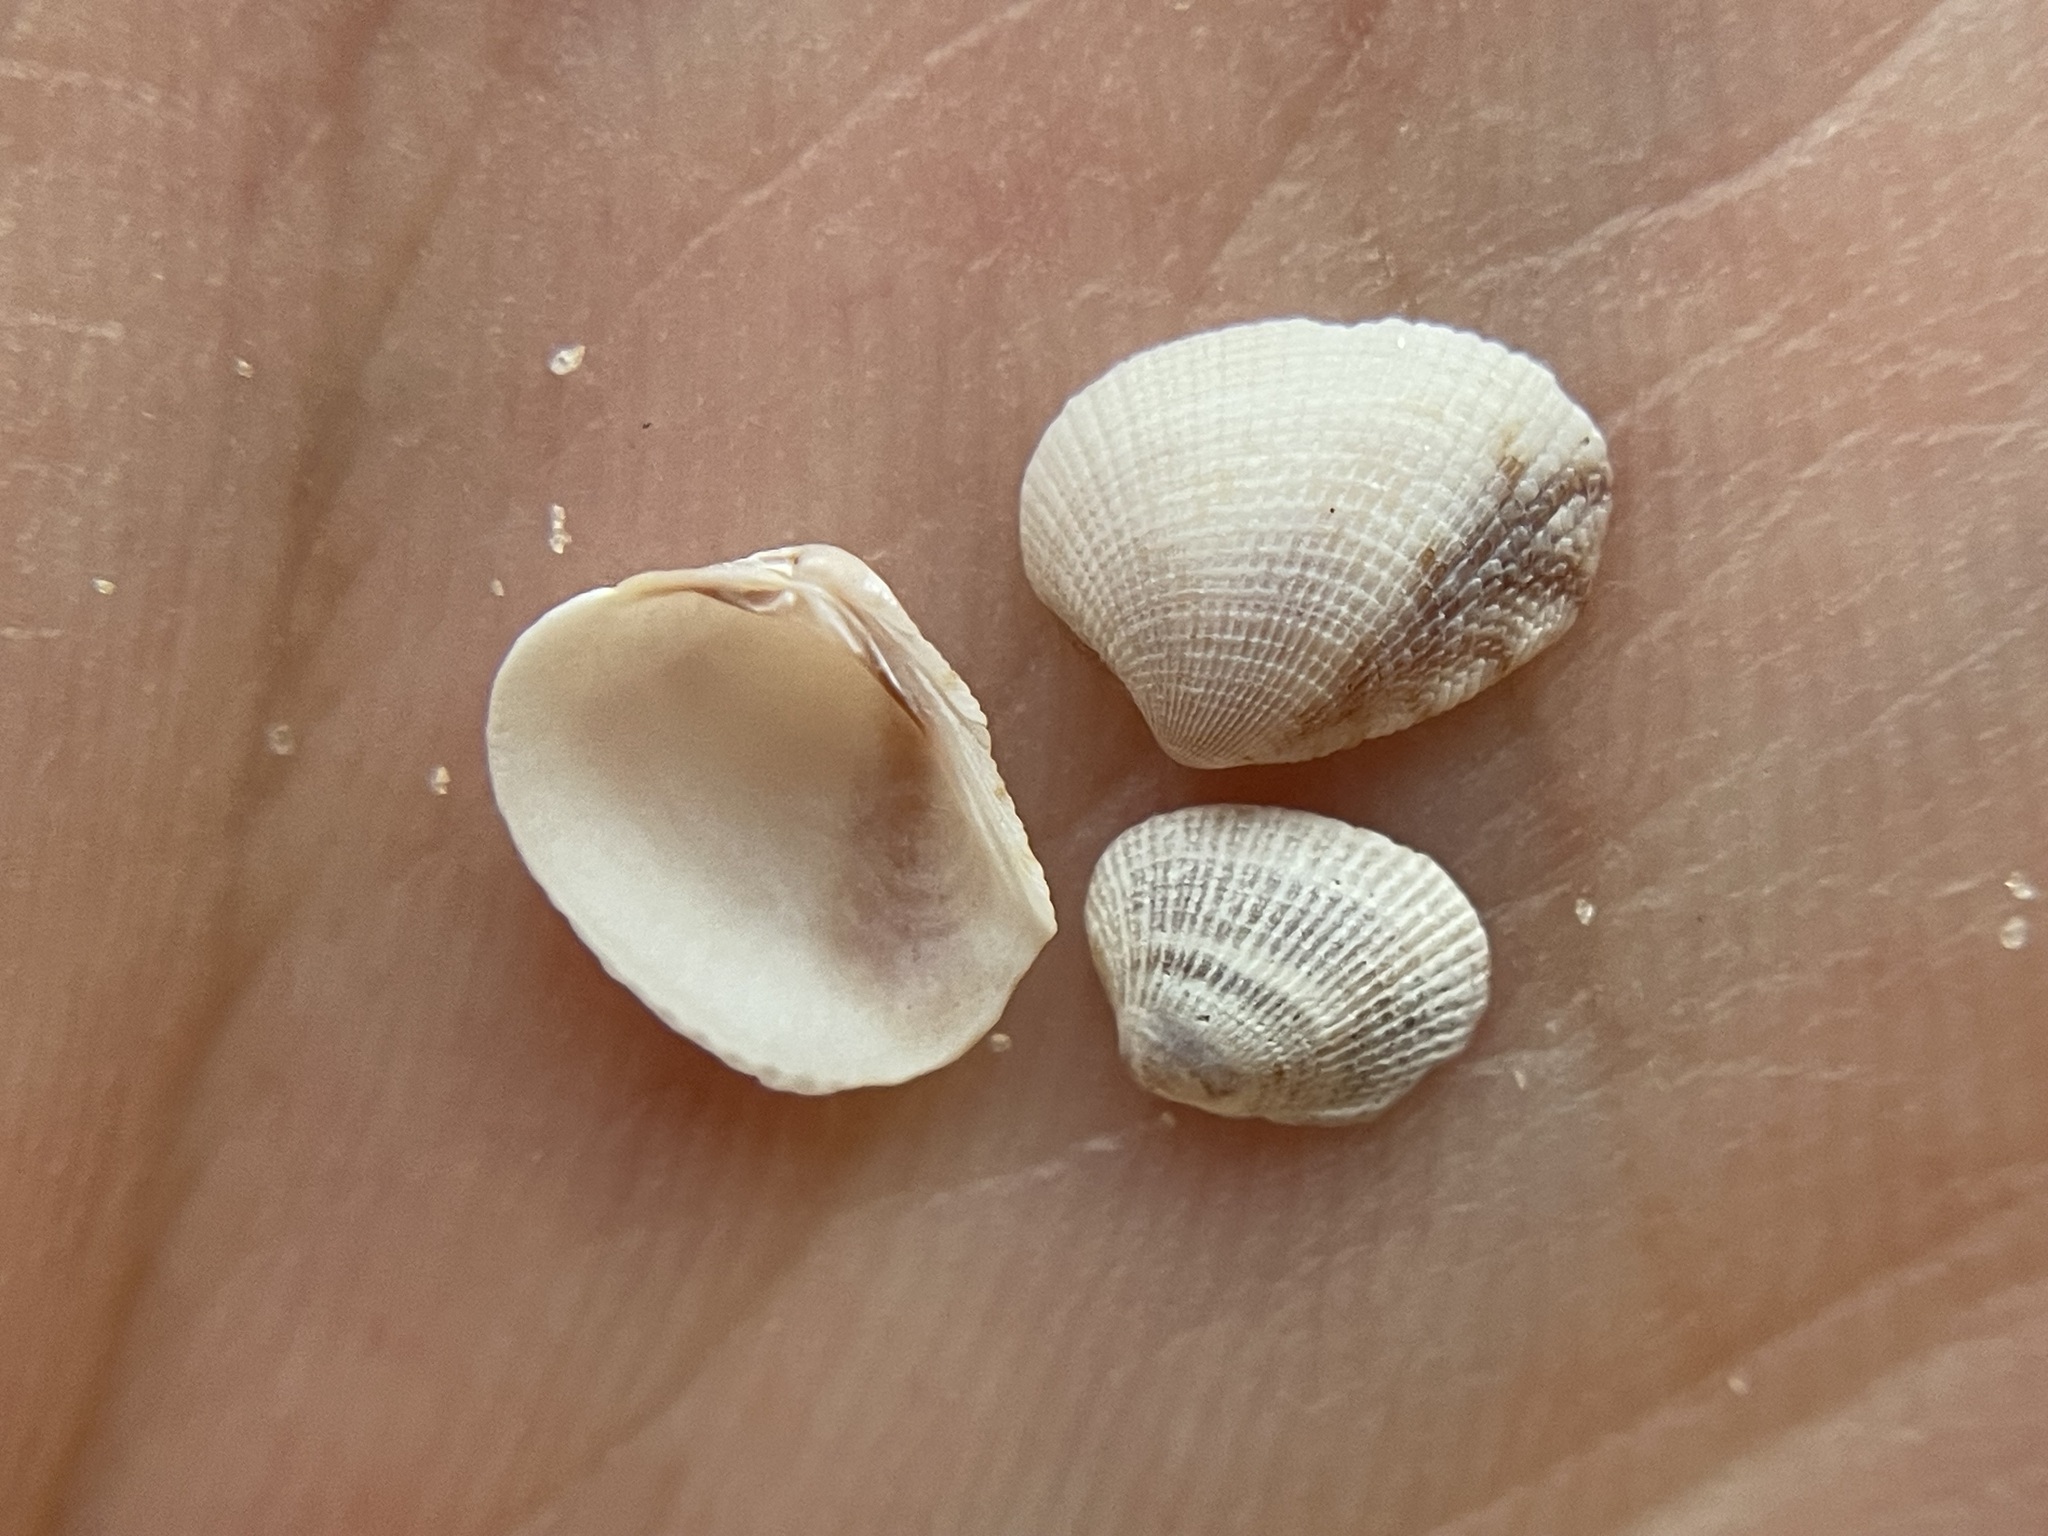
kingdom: Animalia
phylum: Mollusca
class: Bivalvia
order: Venerida
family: Veneridae
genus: Chioneryx
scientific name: Chioneryx grus
